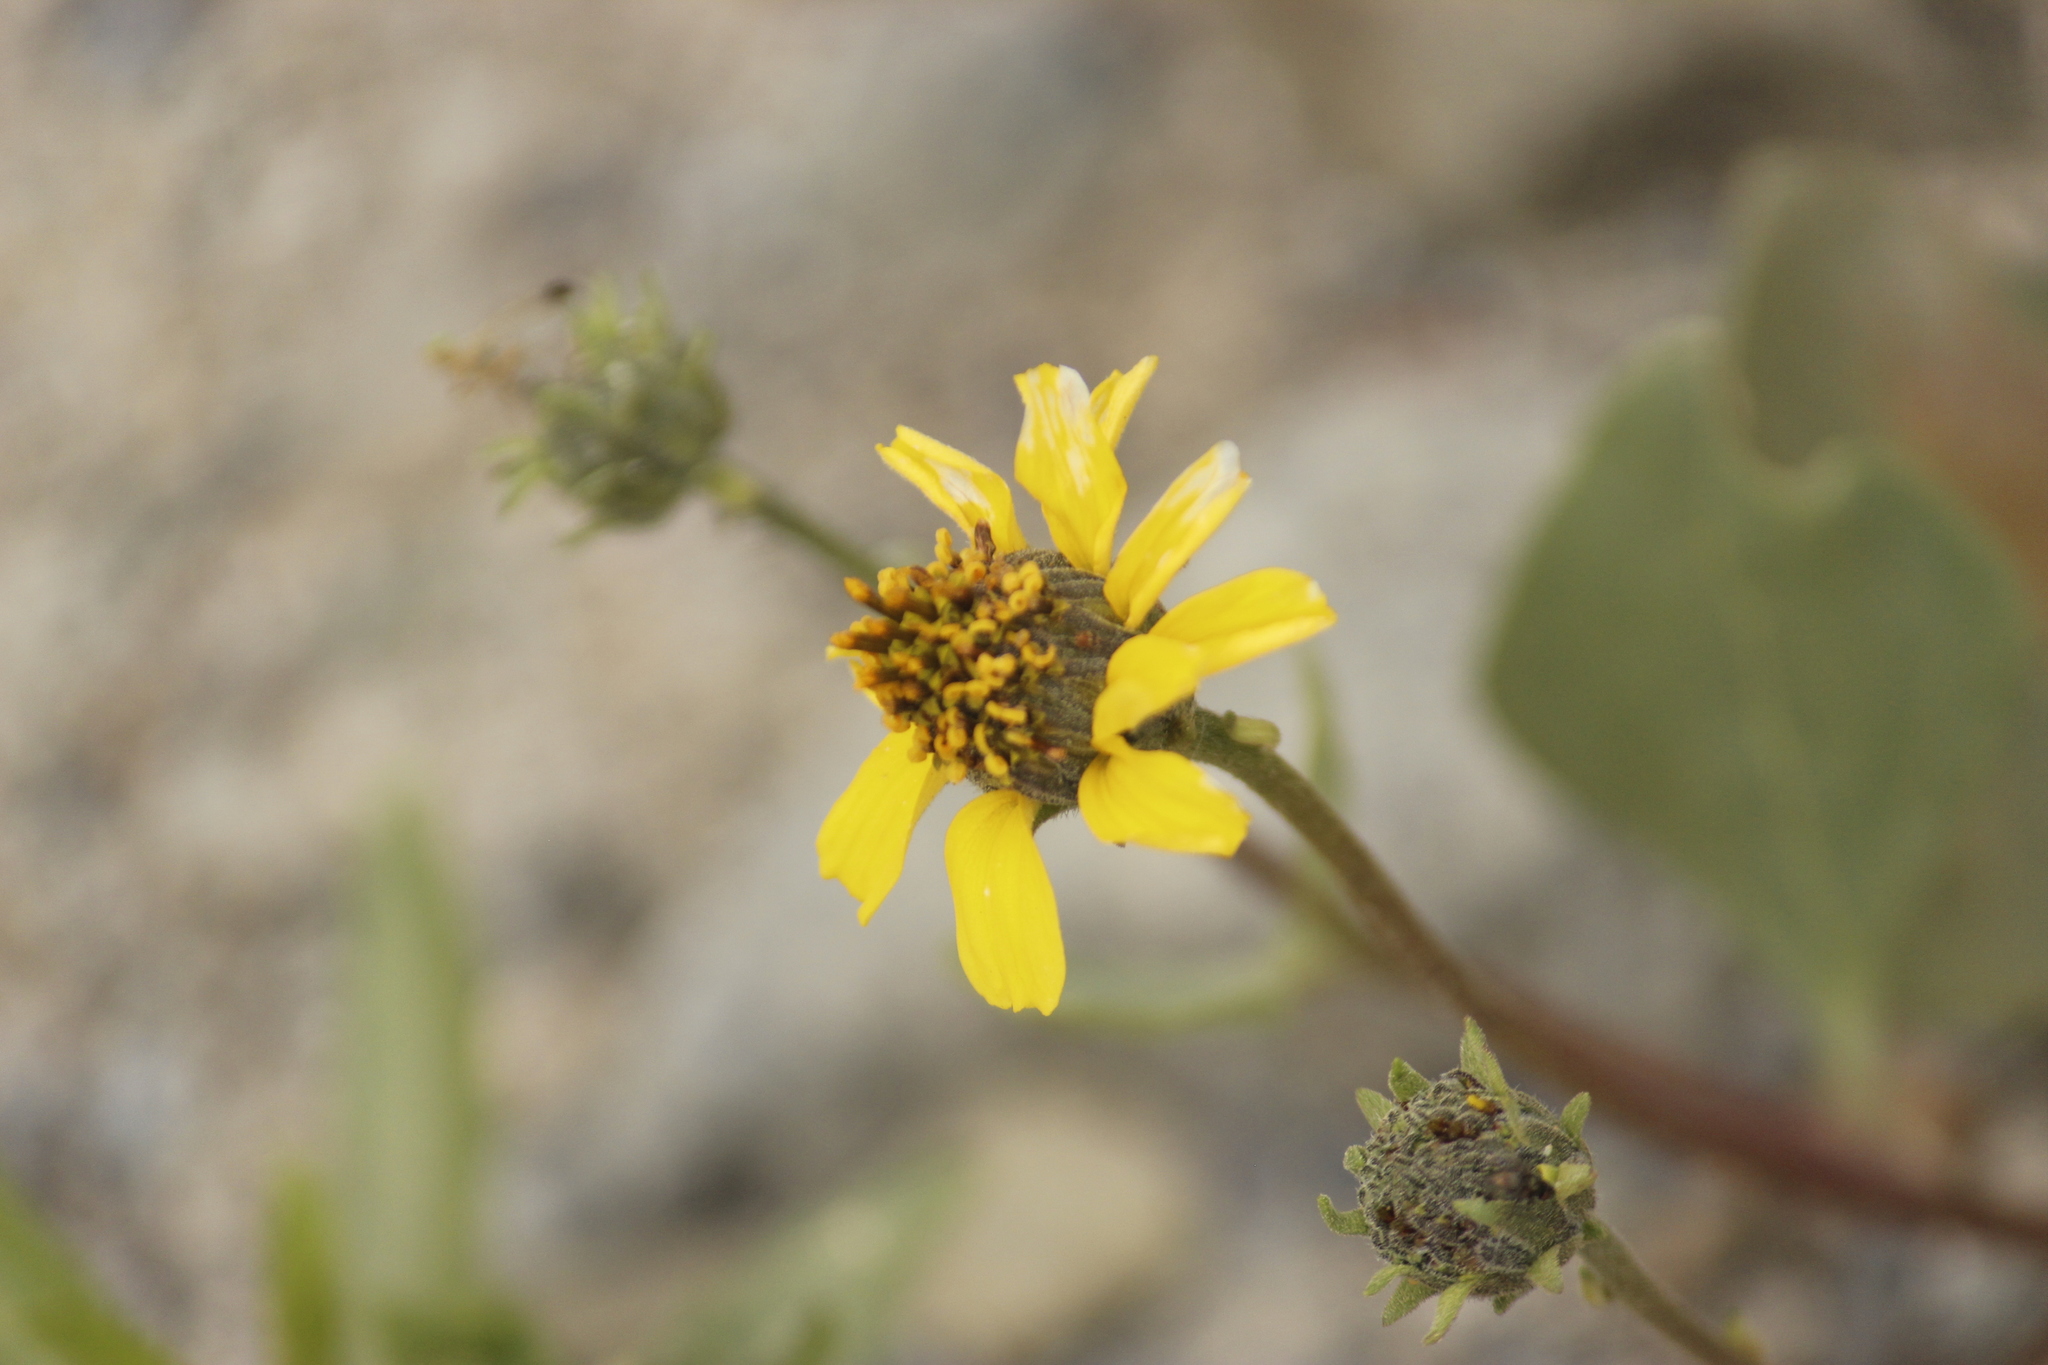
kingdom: Plantae
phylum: Tracheophyta
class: Magnoliopsida
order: Asterales
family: Asteraceae
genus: Encelia
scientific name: Encelia canescens
